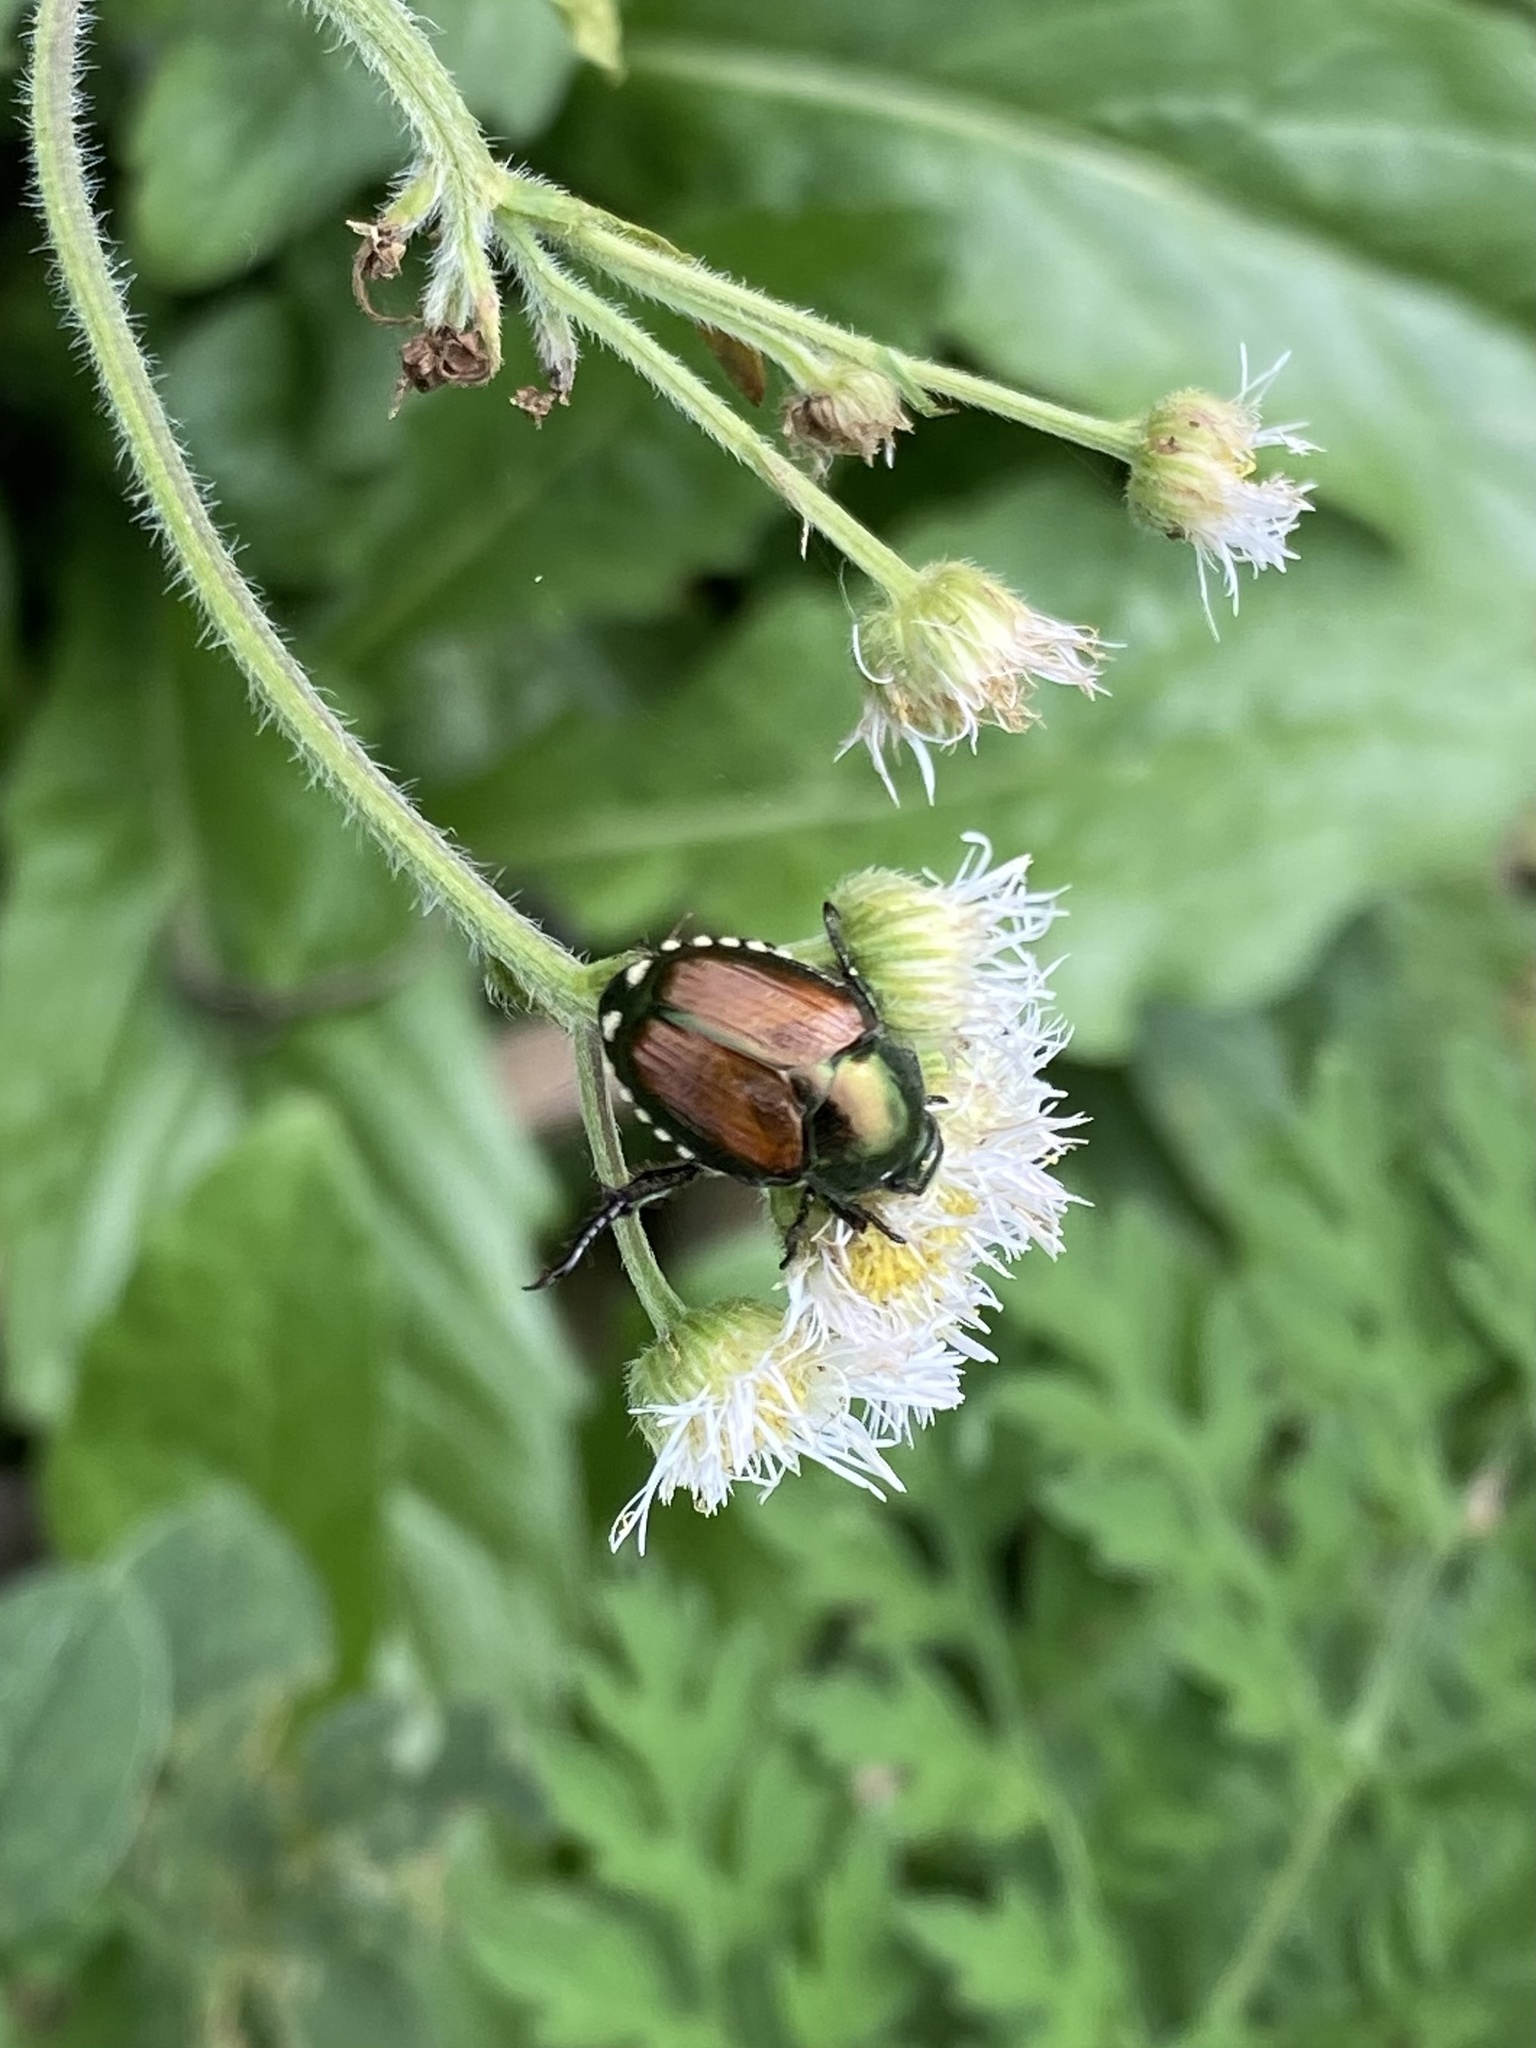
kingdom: Animalia
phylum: Arthropoda
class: Insecta
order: Coleoptera
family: Scarabaeidae
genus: Popillia
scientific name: Popillia japonica
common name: Japanese beetle
